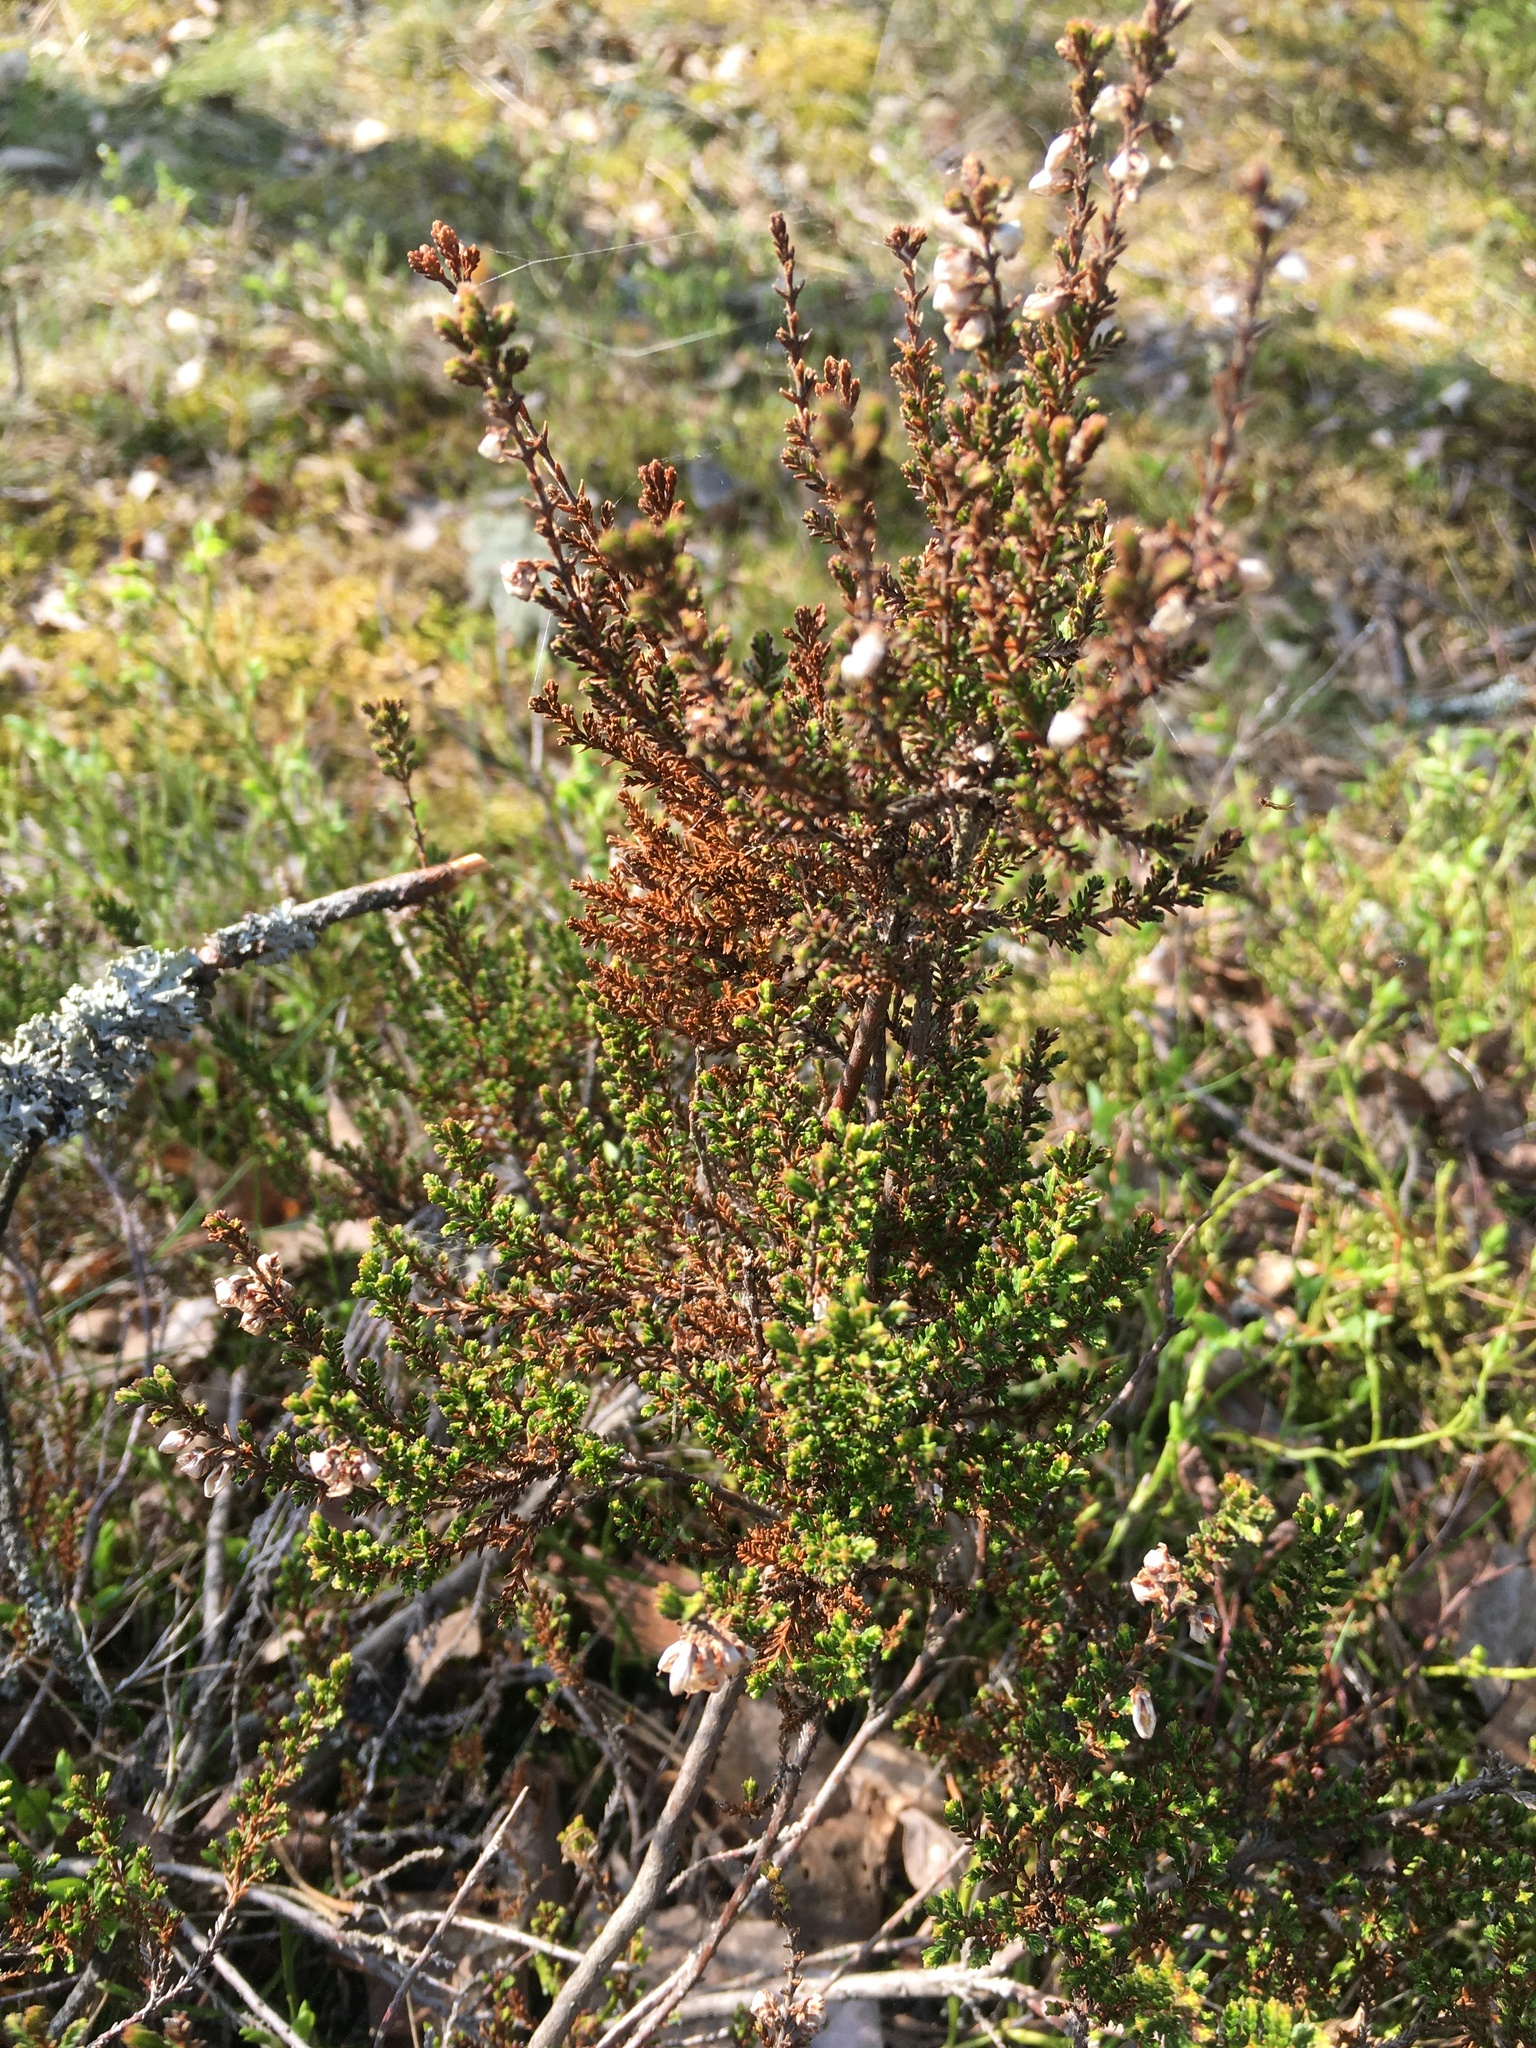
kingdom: Plantae
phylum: Tracheophyta
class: Magnoliopsida
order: Ericales
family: Ericaceae
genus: Calluna
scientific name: Calluna vulgaris
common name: Heather
